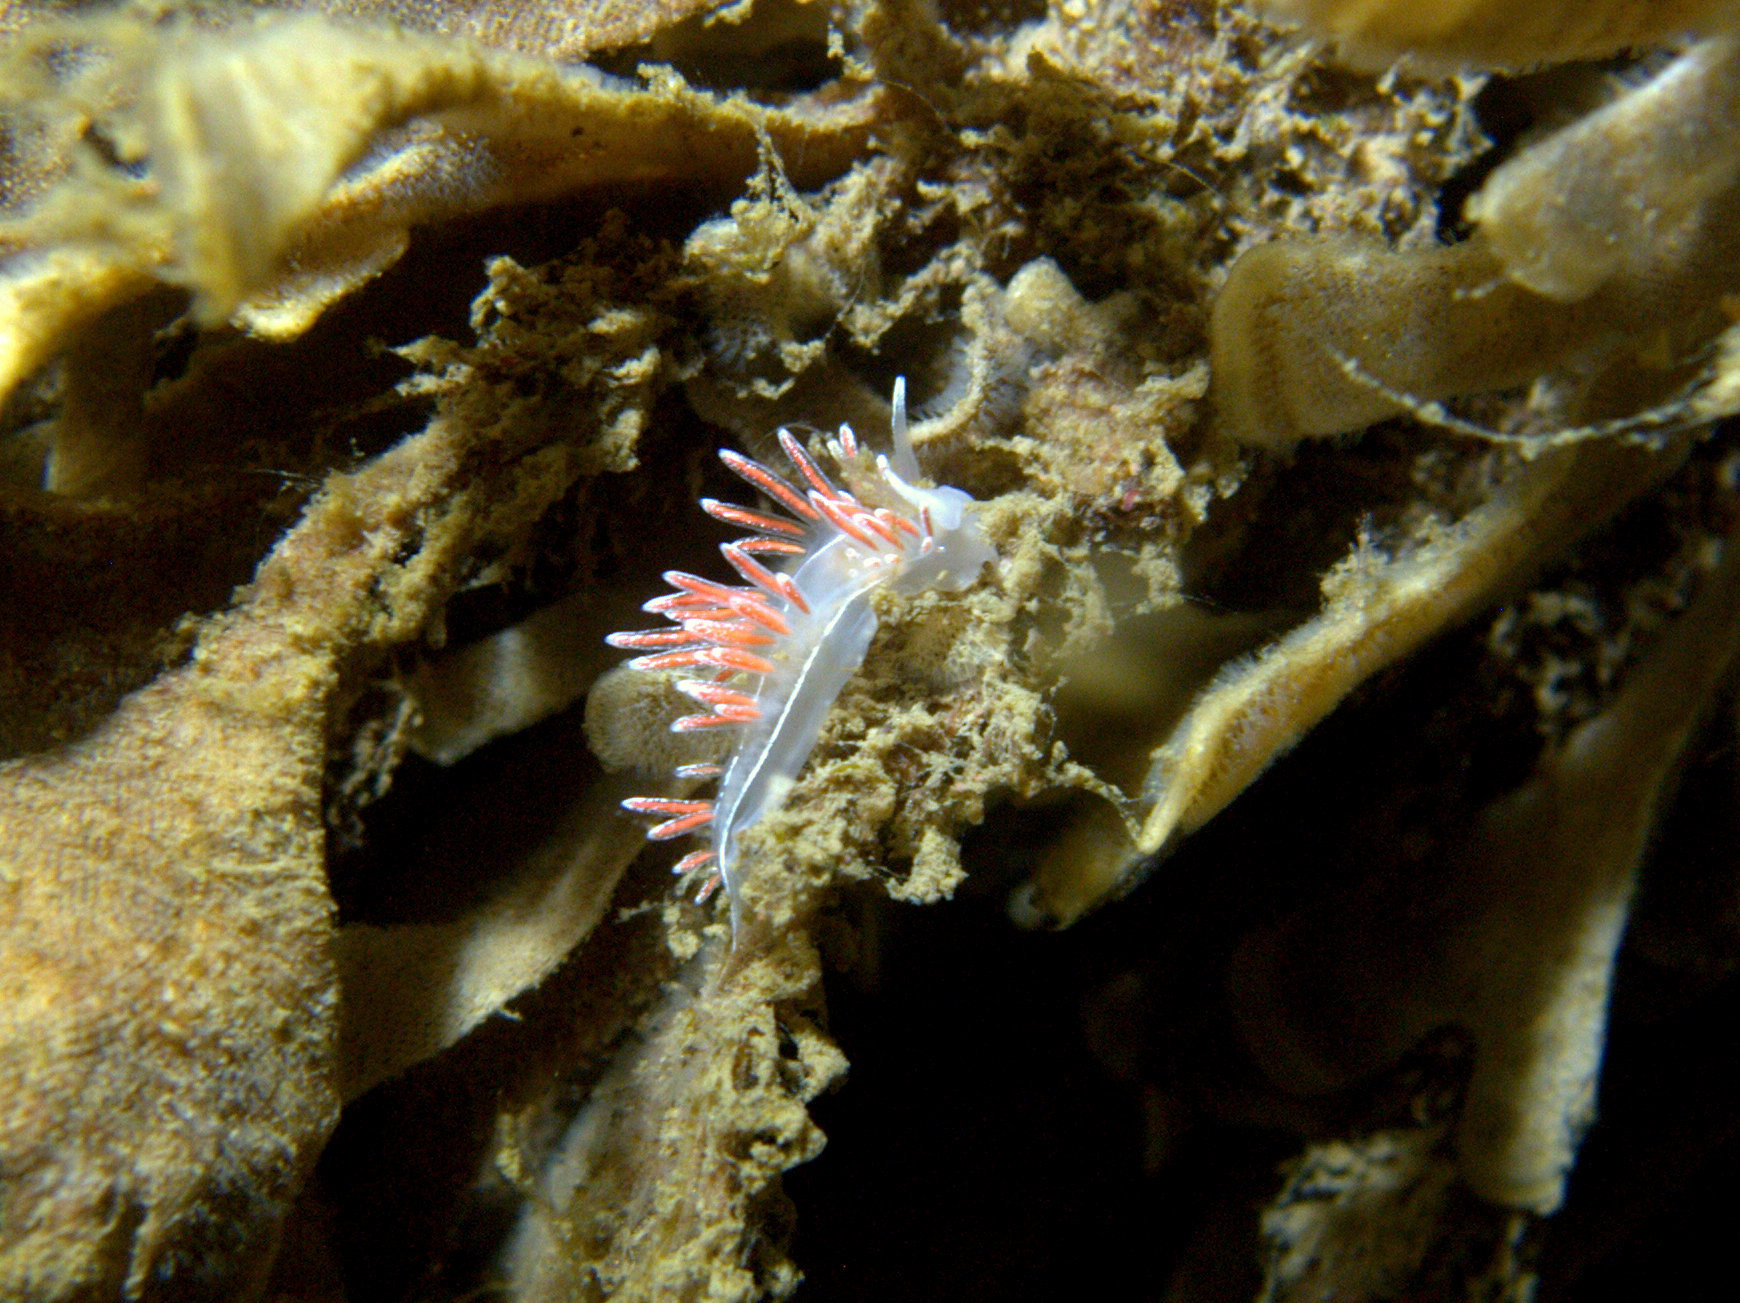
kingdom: Animalia
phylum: Mollusca
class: Gastropoda
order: Nudibranchia
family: Coryphellidae
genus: Coryphella
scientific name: Coryphella monicae
